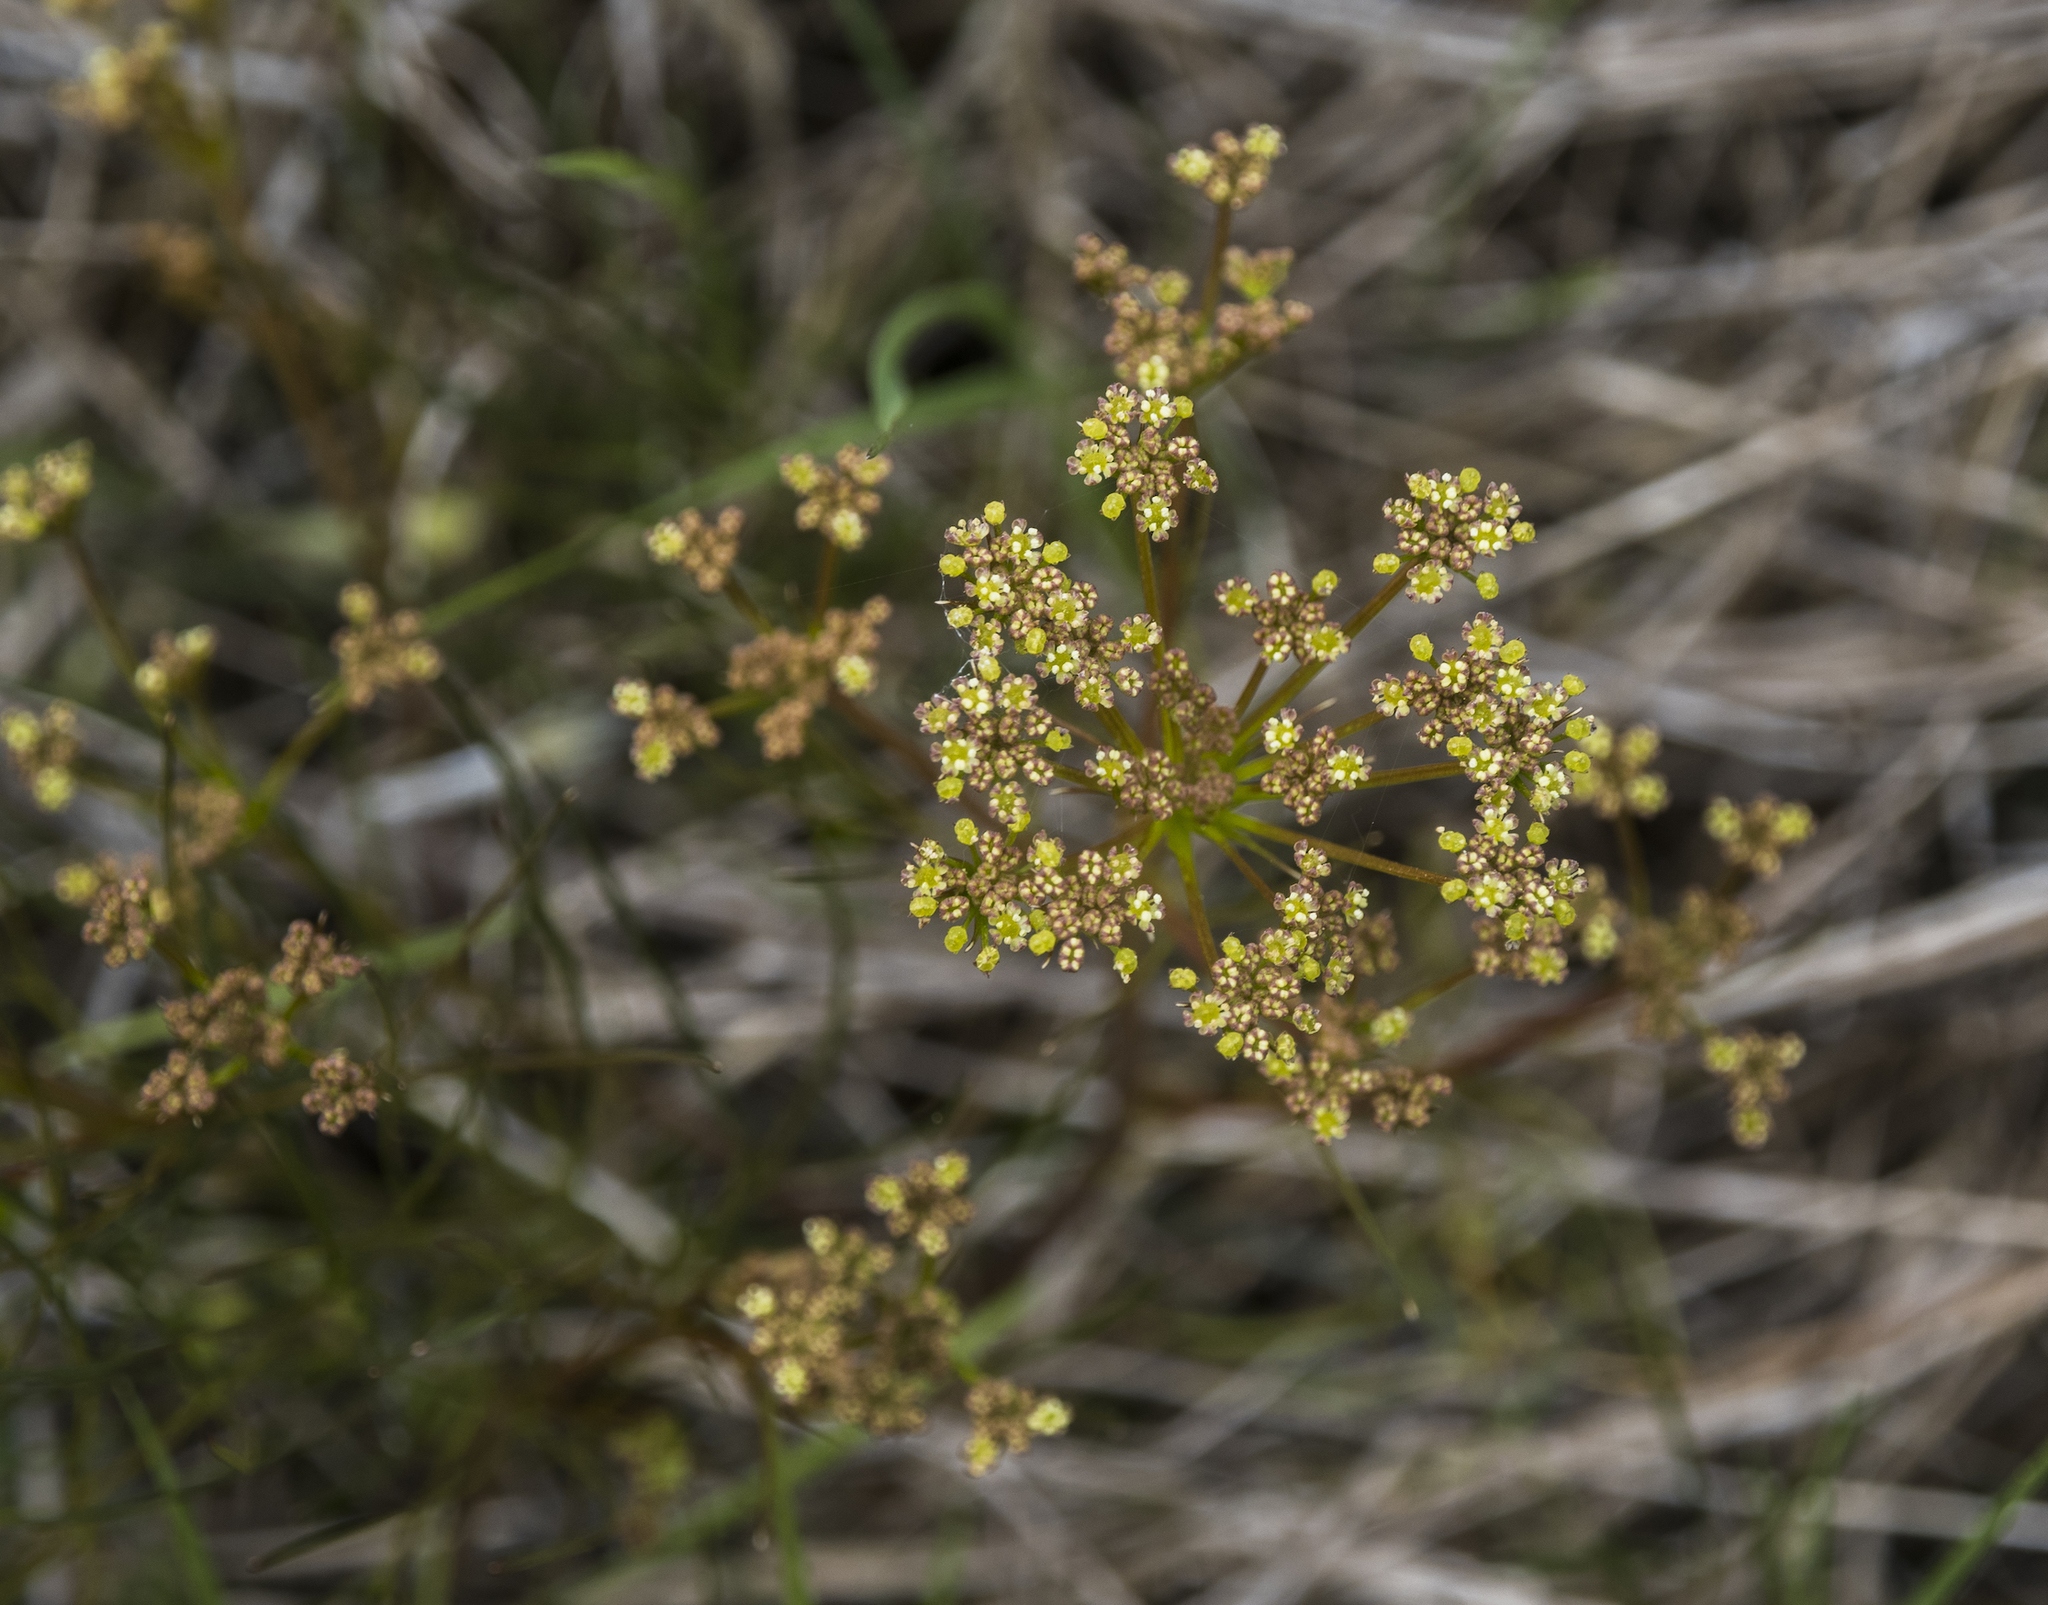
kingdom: Plantae
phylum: Tracheophyta
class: Magnoliopsida
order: Apiales
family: Apiaceae
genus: Anisotome
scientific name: Anisotome filifolia
